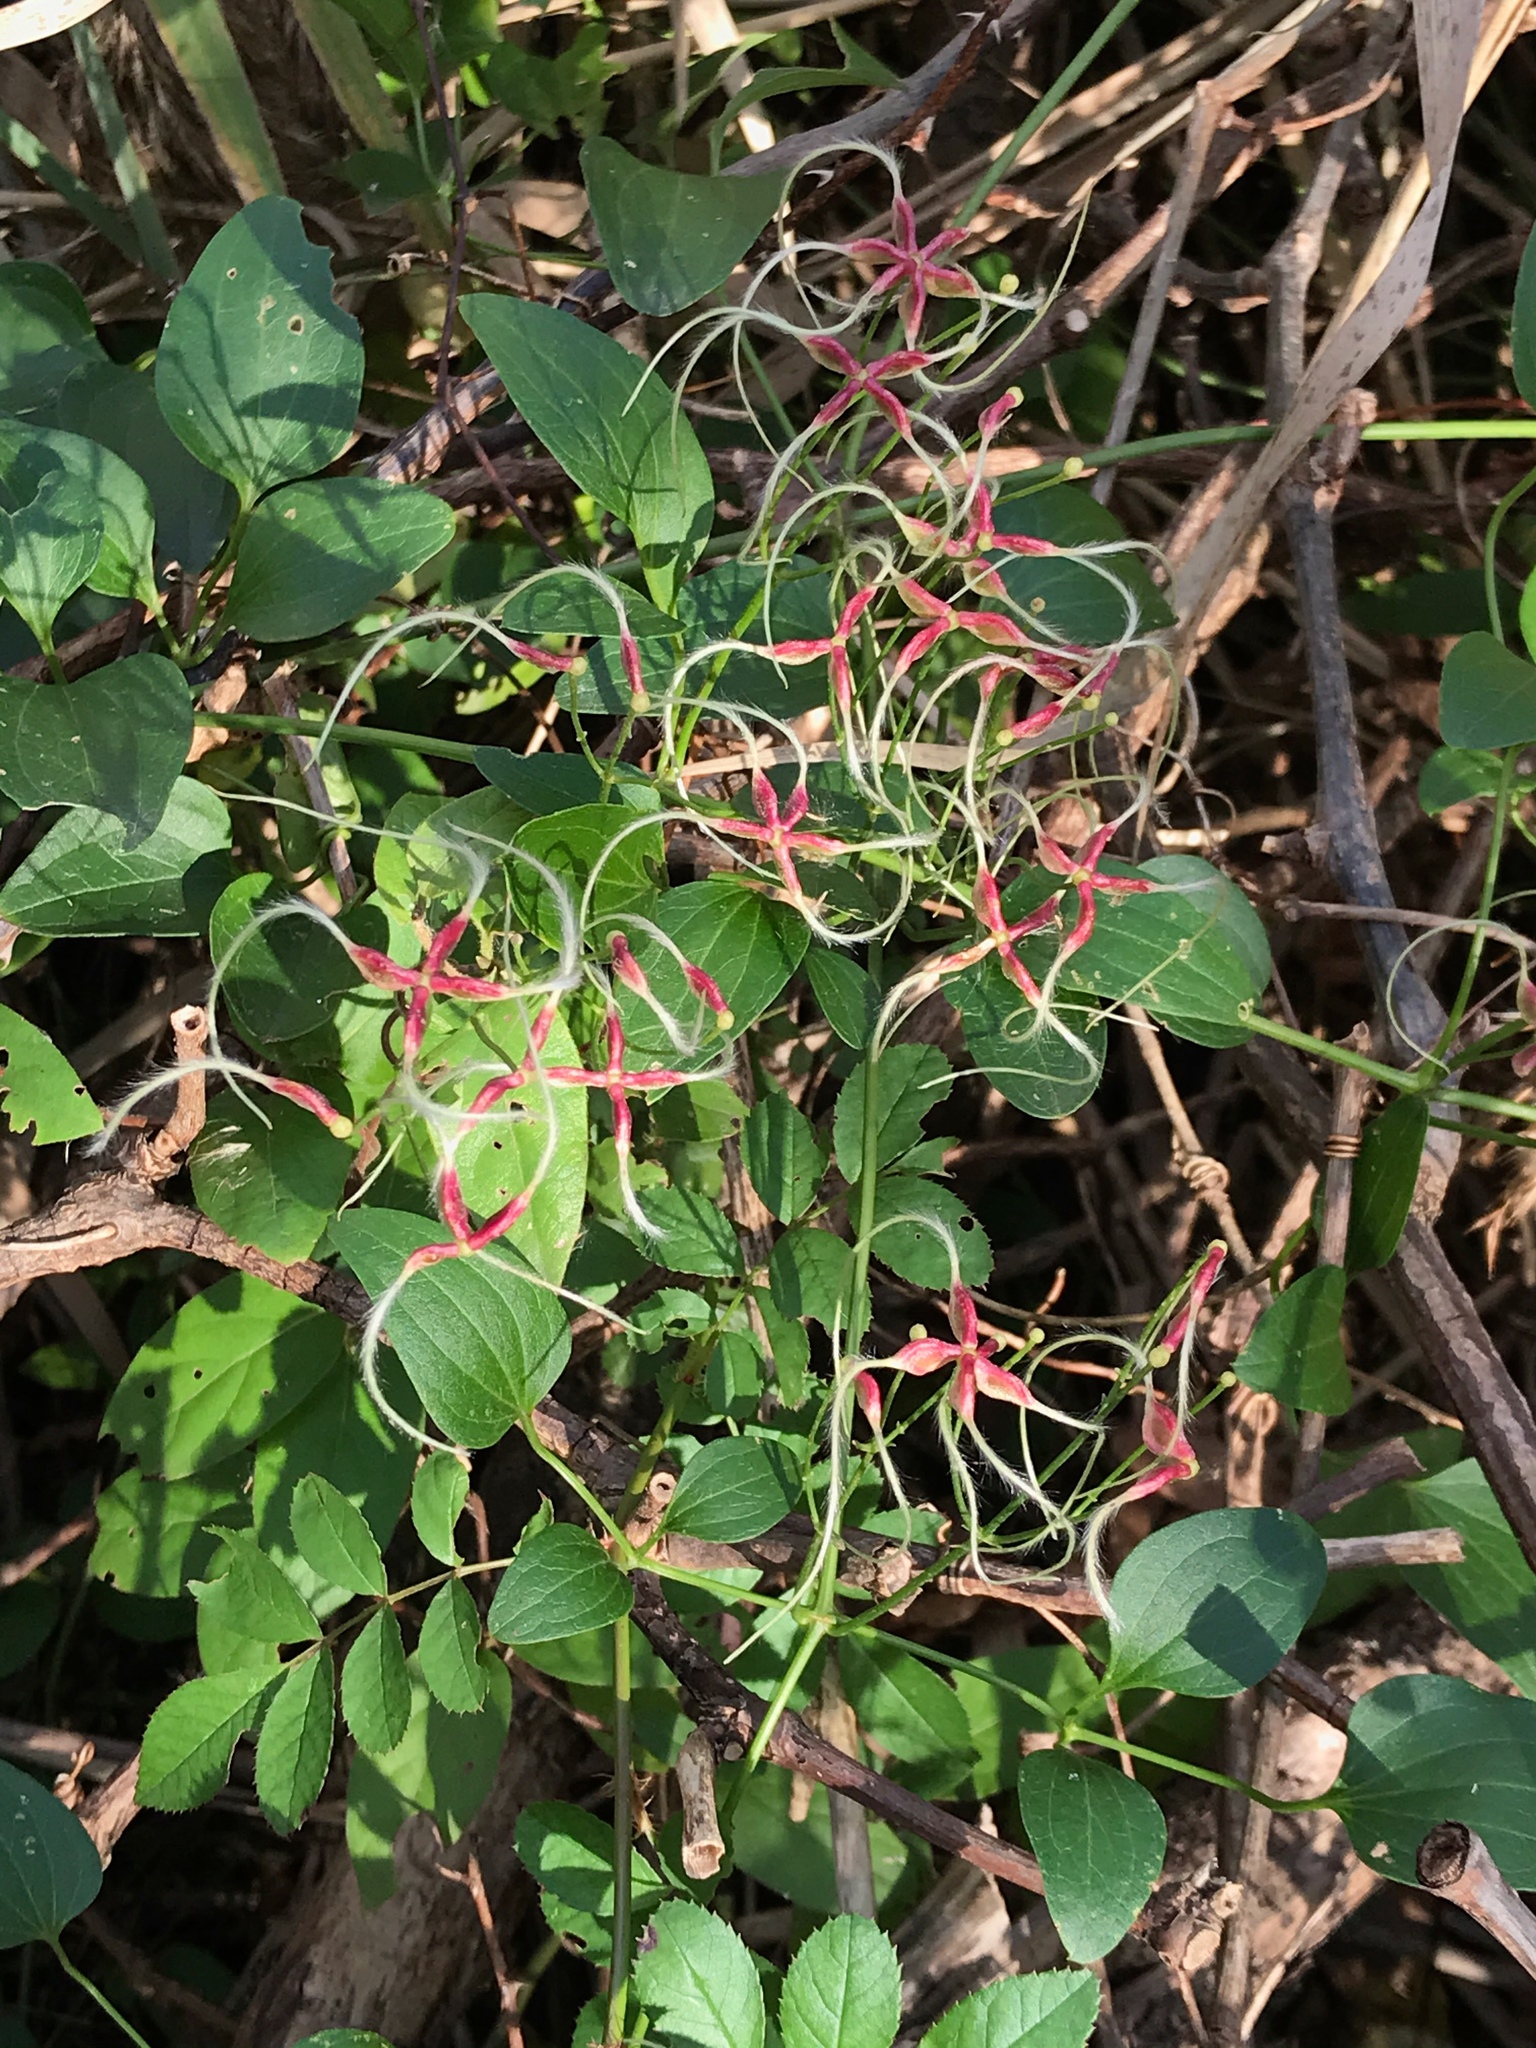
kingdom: Plantae
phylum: Tracheophyta
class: Magnoliopsida
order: Ranunculales
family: Ranunculaceae
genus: Clematis
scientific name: Clematis terniflora
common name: Sweet autumn clematis
